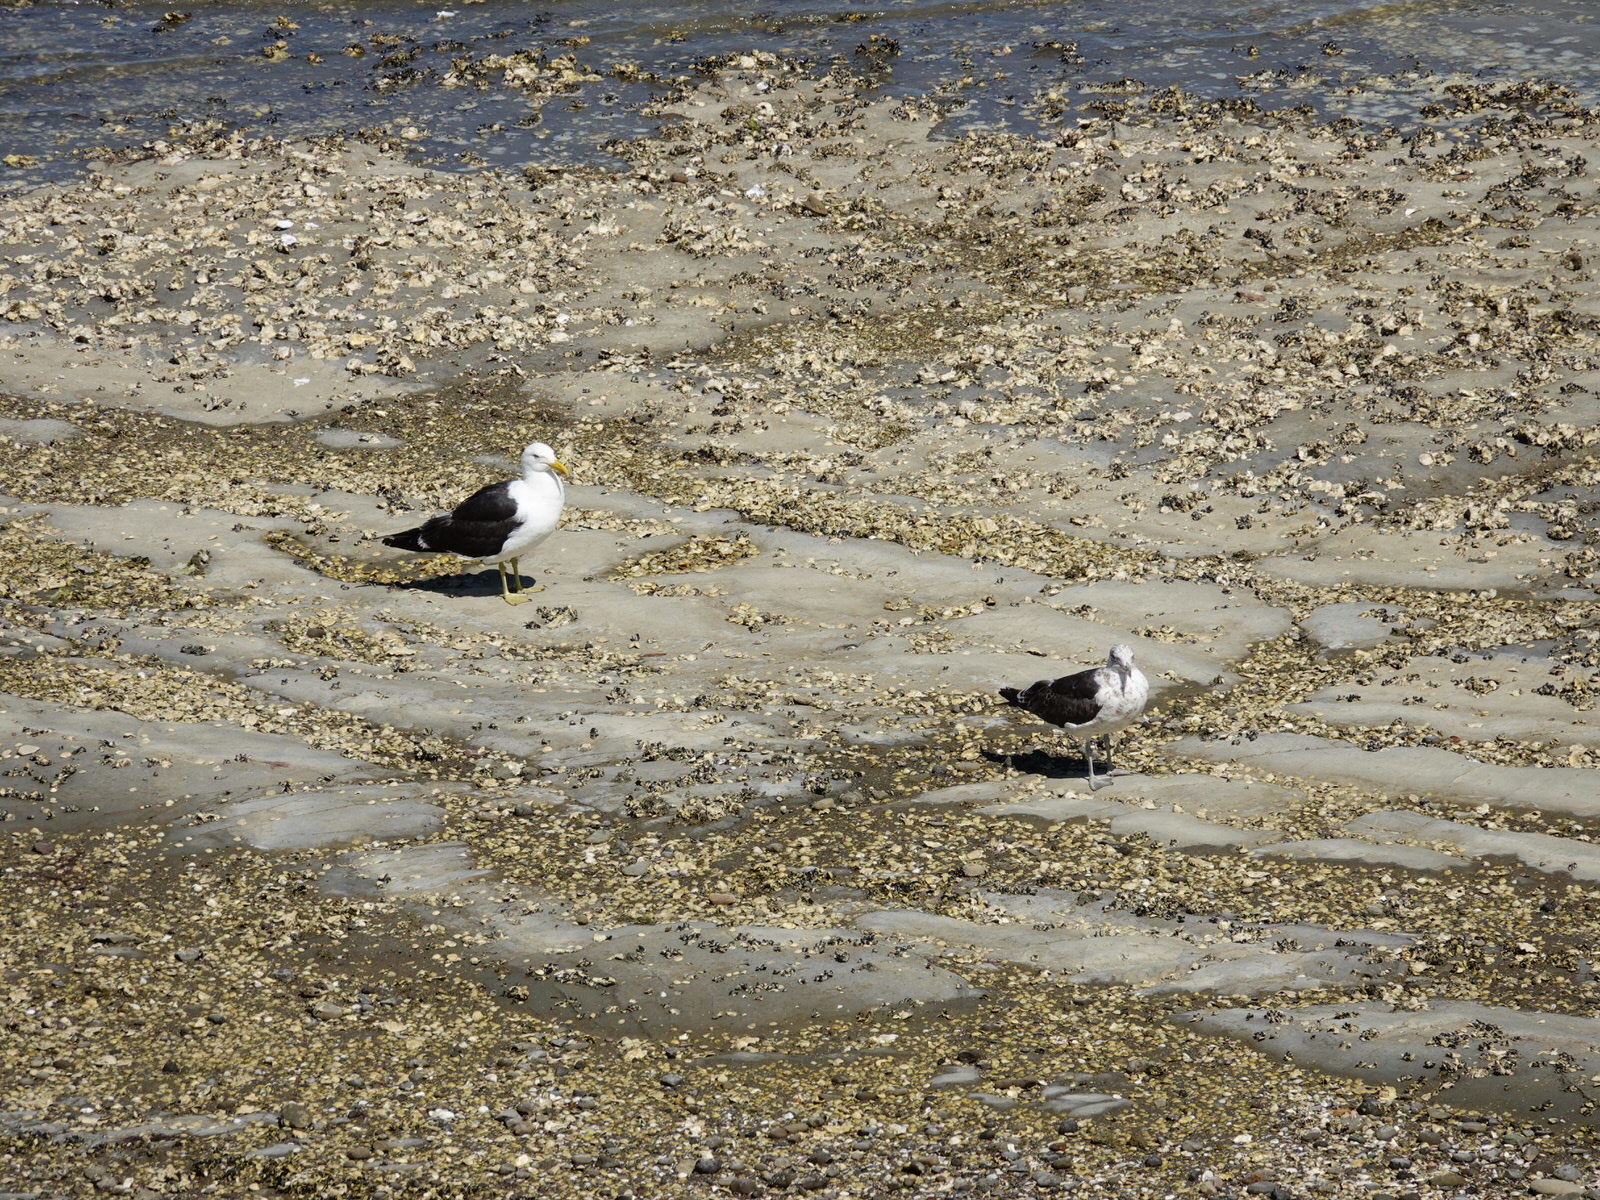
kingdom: Animalia
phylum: Chordata
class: Aves
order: Charadriiformes
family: Laridae
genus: Larus
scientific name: Larus dominicanus
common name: Kelp gull
